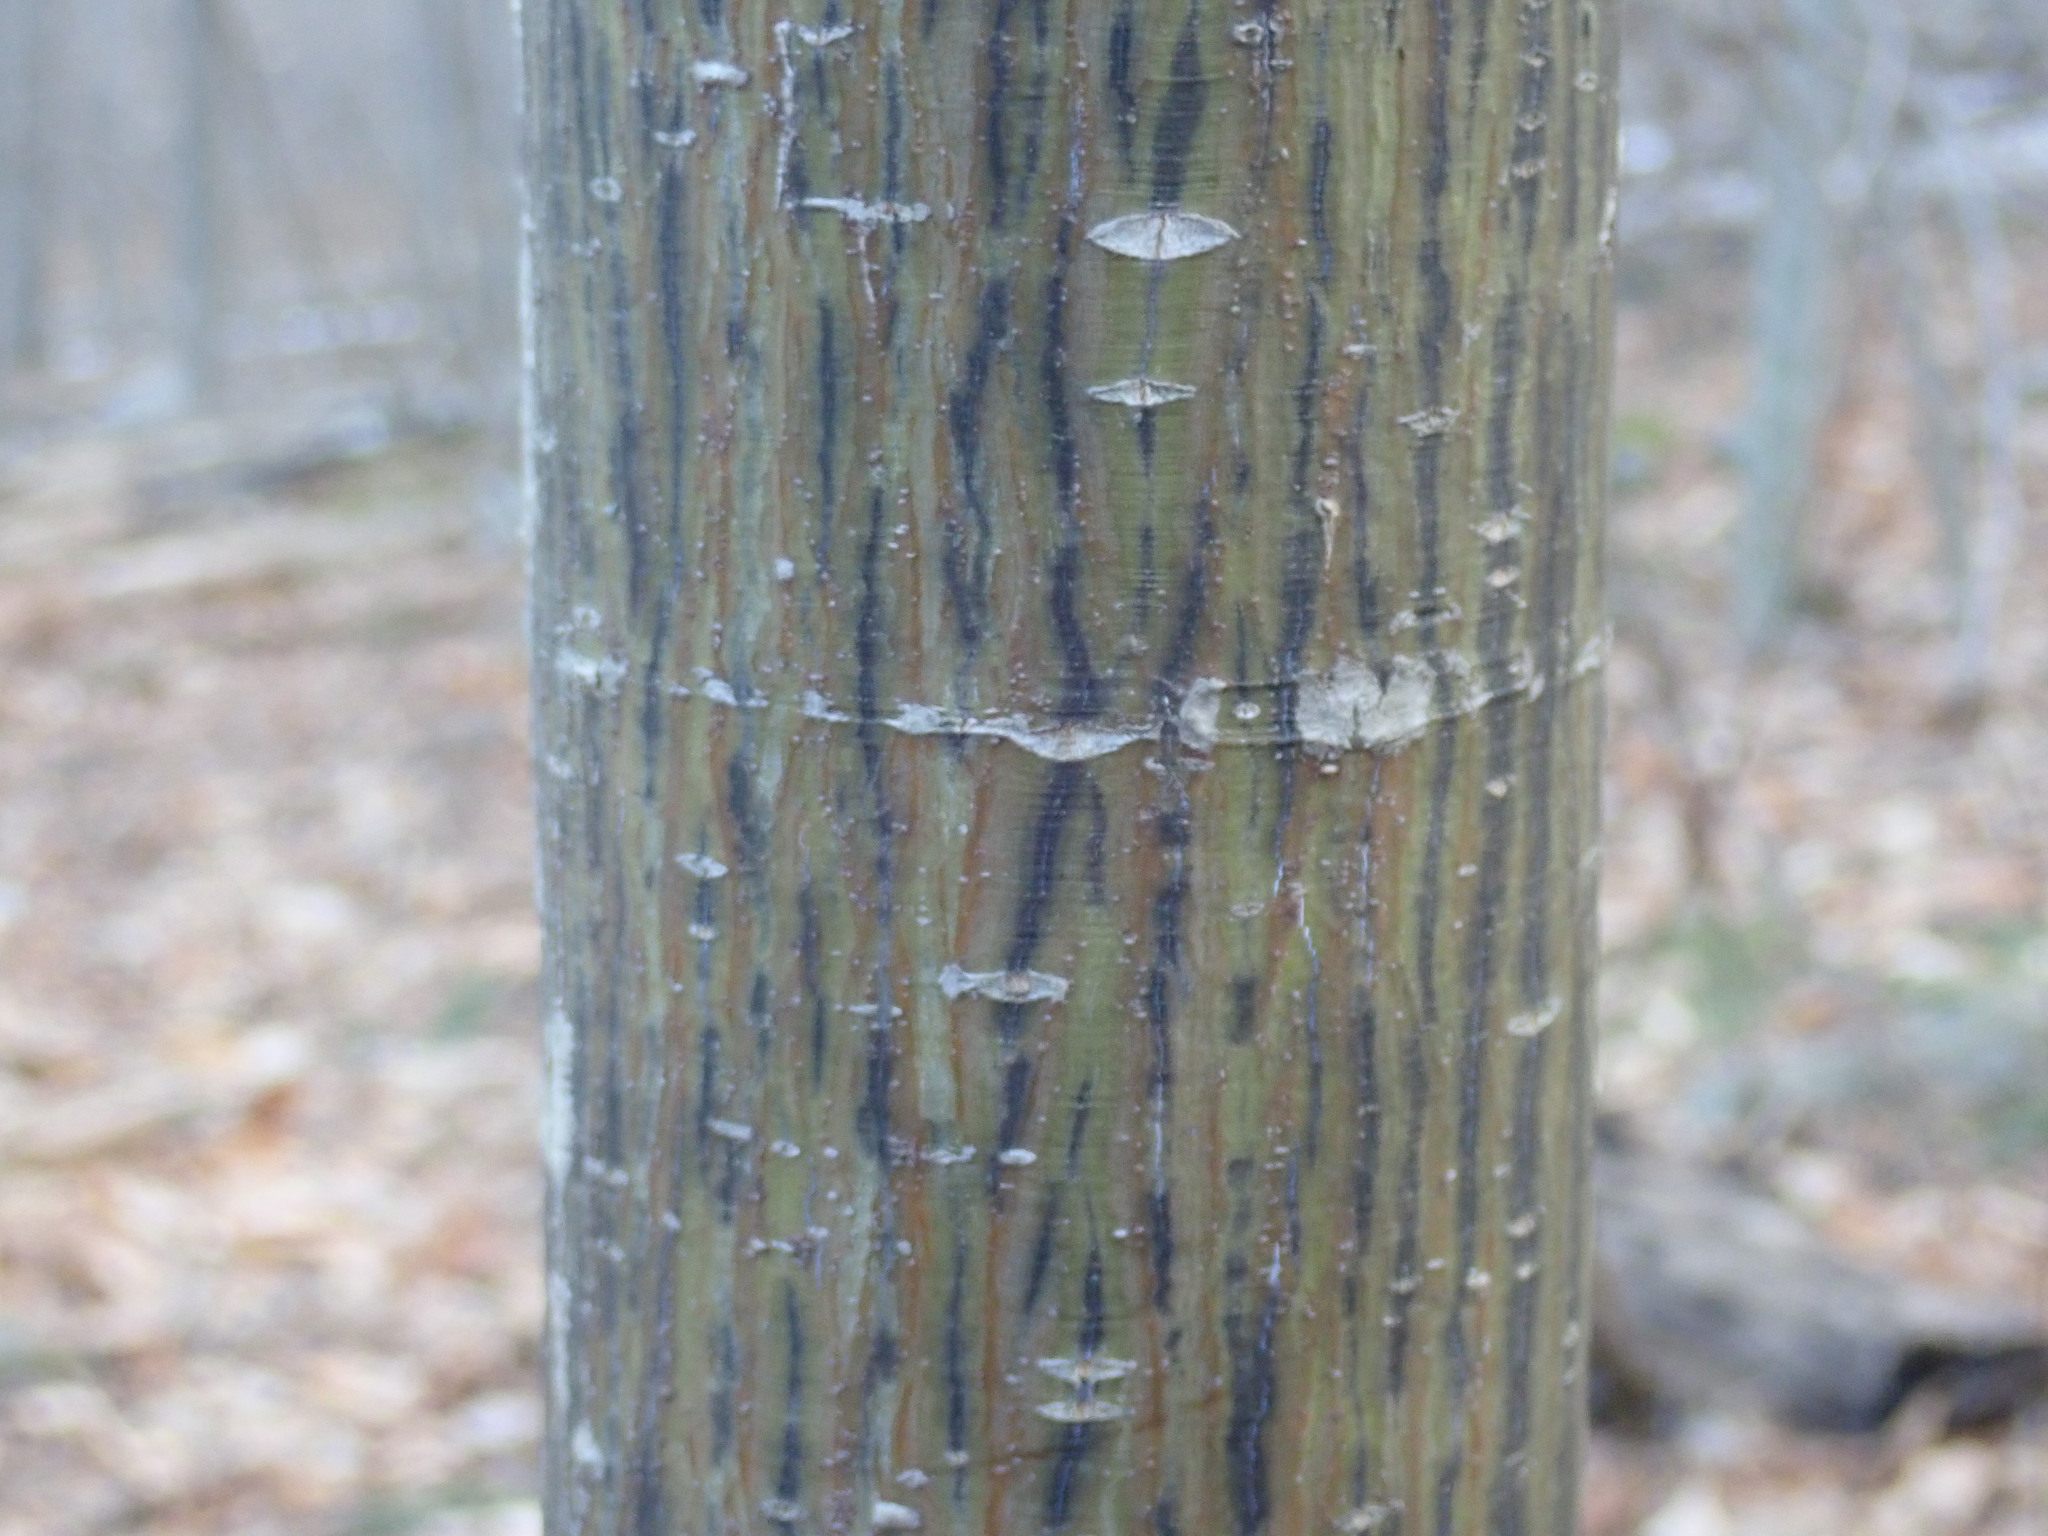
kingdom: Plantae
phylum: Tracheophyta
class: Magnoliopsida
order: Sapindales
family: Sapindaceae
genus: Acer
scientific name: Acer pensylvanicum
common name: Moosewood
